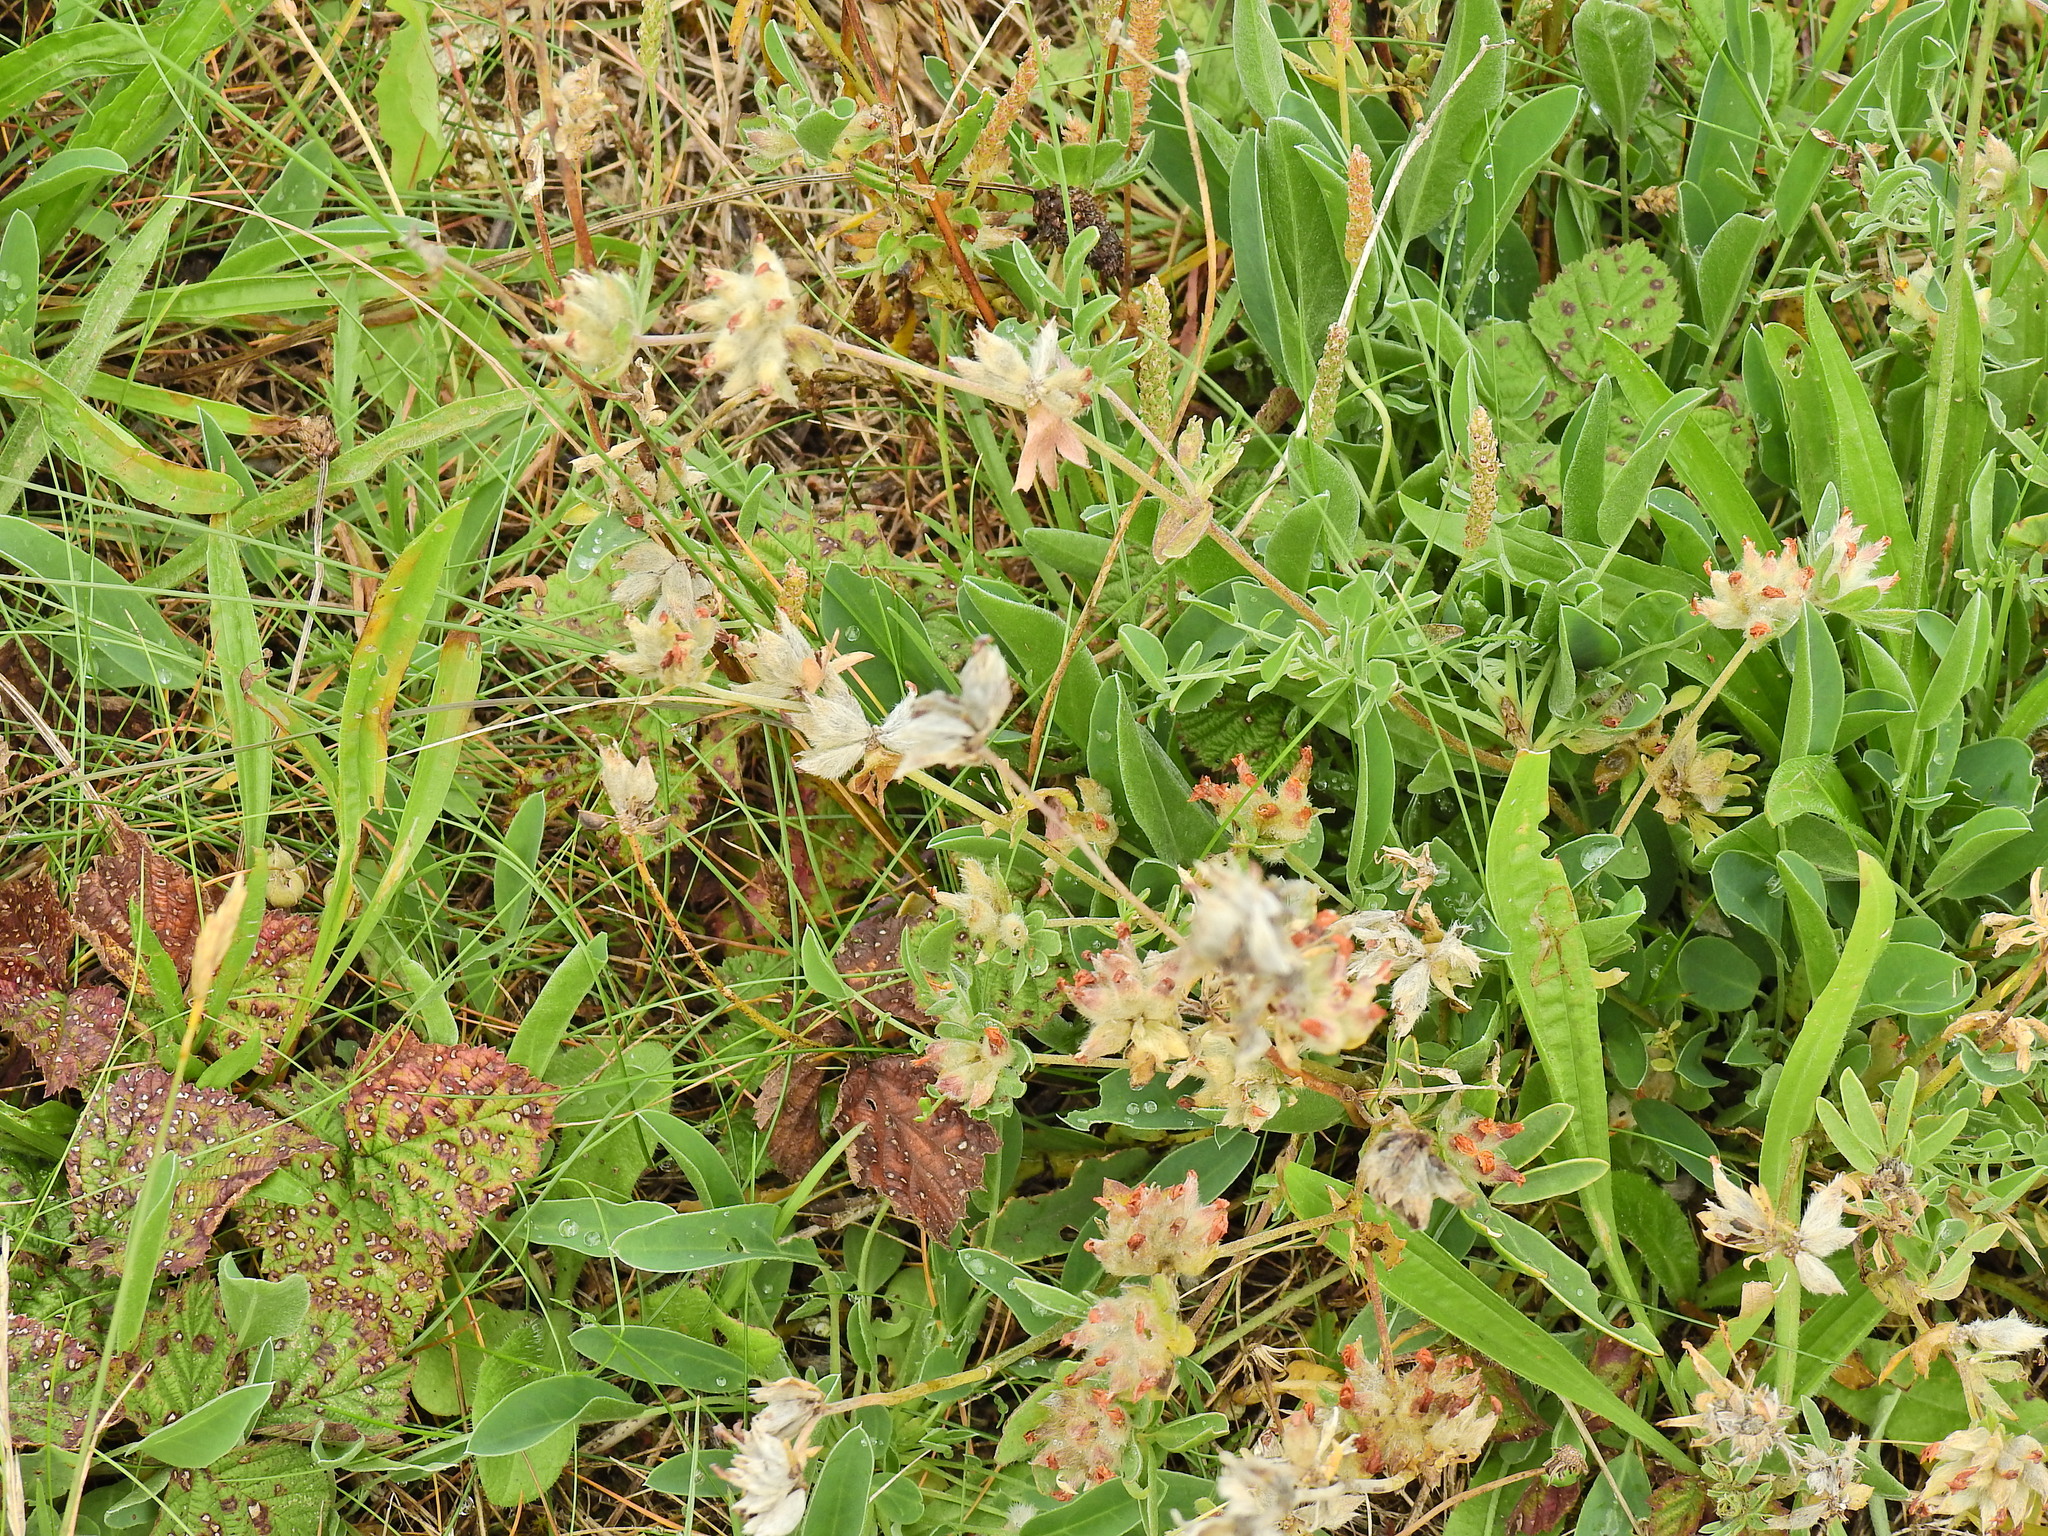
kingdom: Plantae
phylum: Tracheophyta
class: Magnoliopsida
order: Fabales
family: Fabaceae
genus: Anthyllis
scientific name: Anthyllis vulneraria
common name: Kidney vetch
